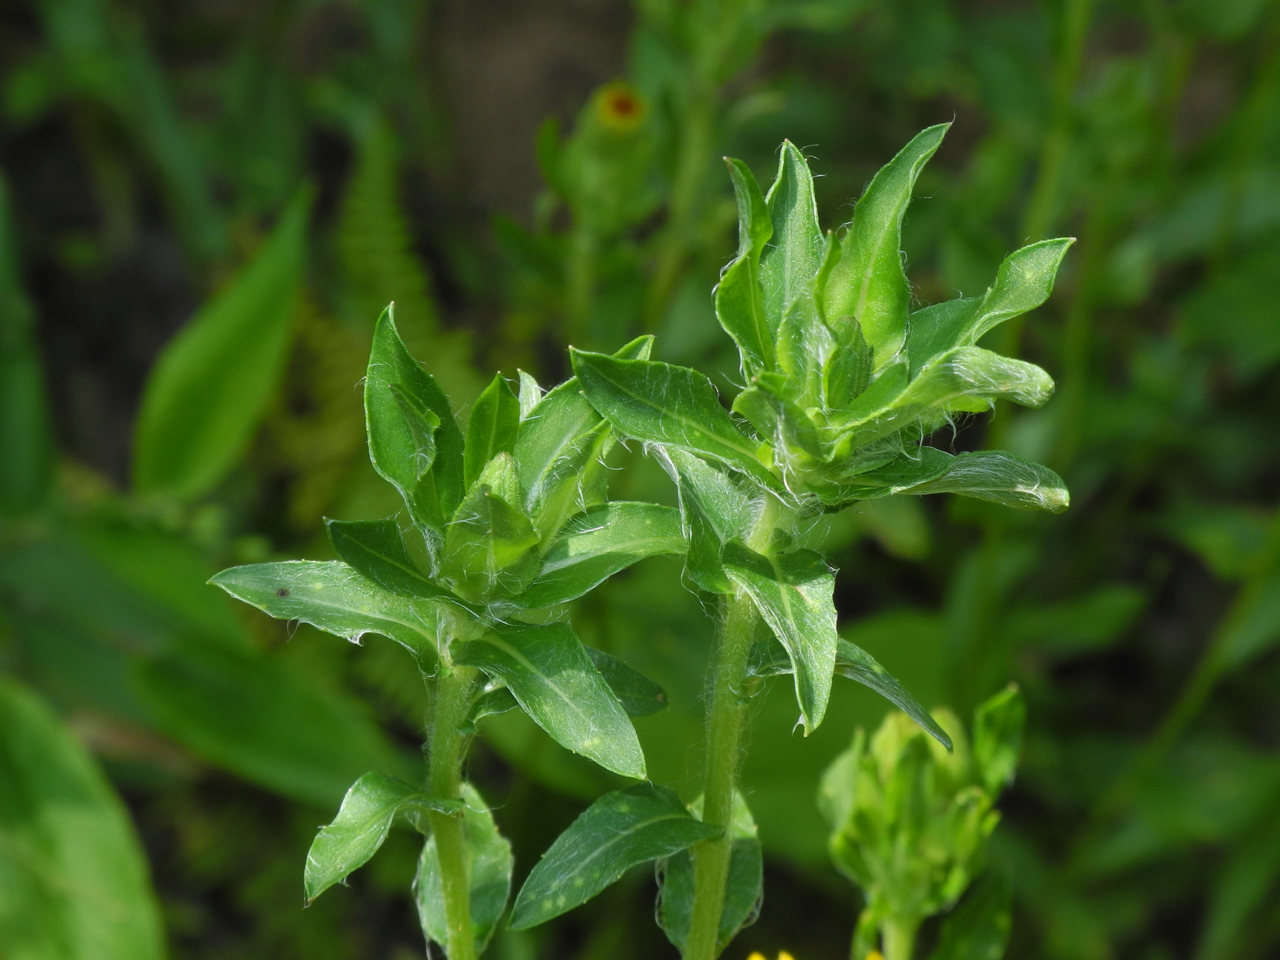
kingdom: Plantae
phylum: Tracheophyta
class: Magnoliopsida
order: Asterales
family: Asteraceae
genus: Chrysopsis
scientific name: Chrysopsis mariana
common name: Maryland golden-aster
